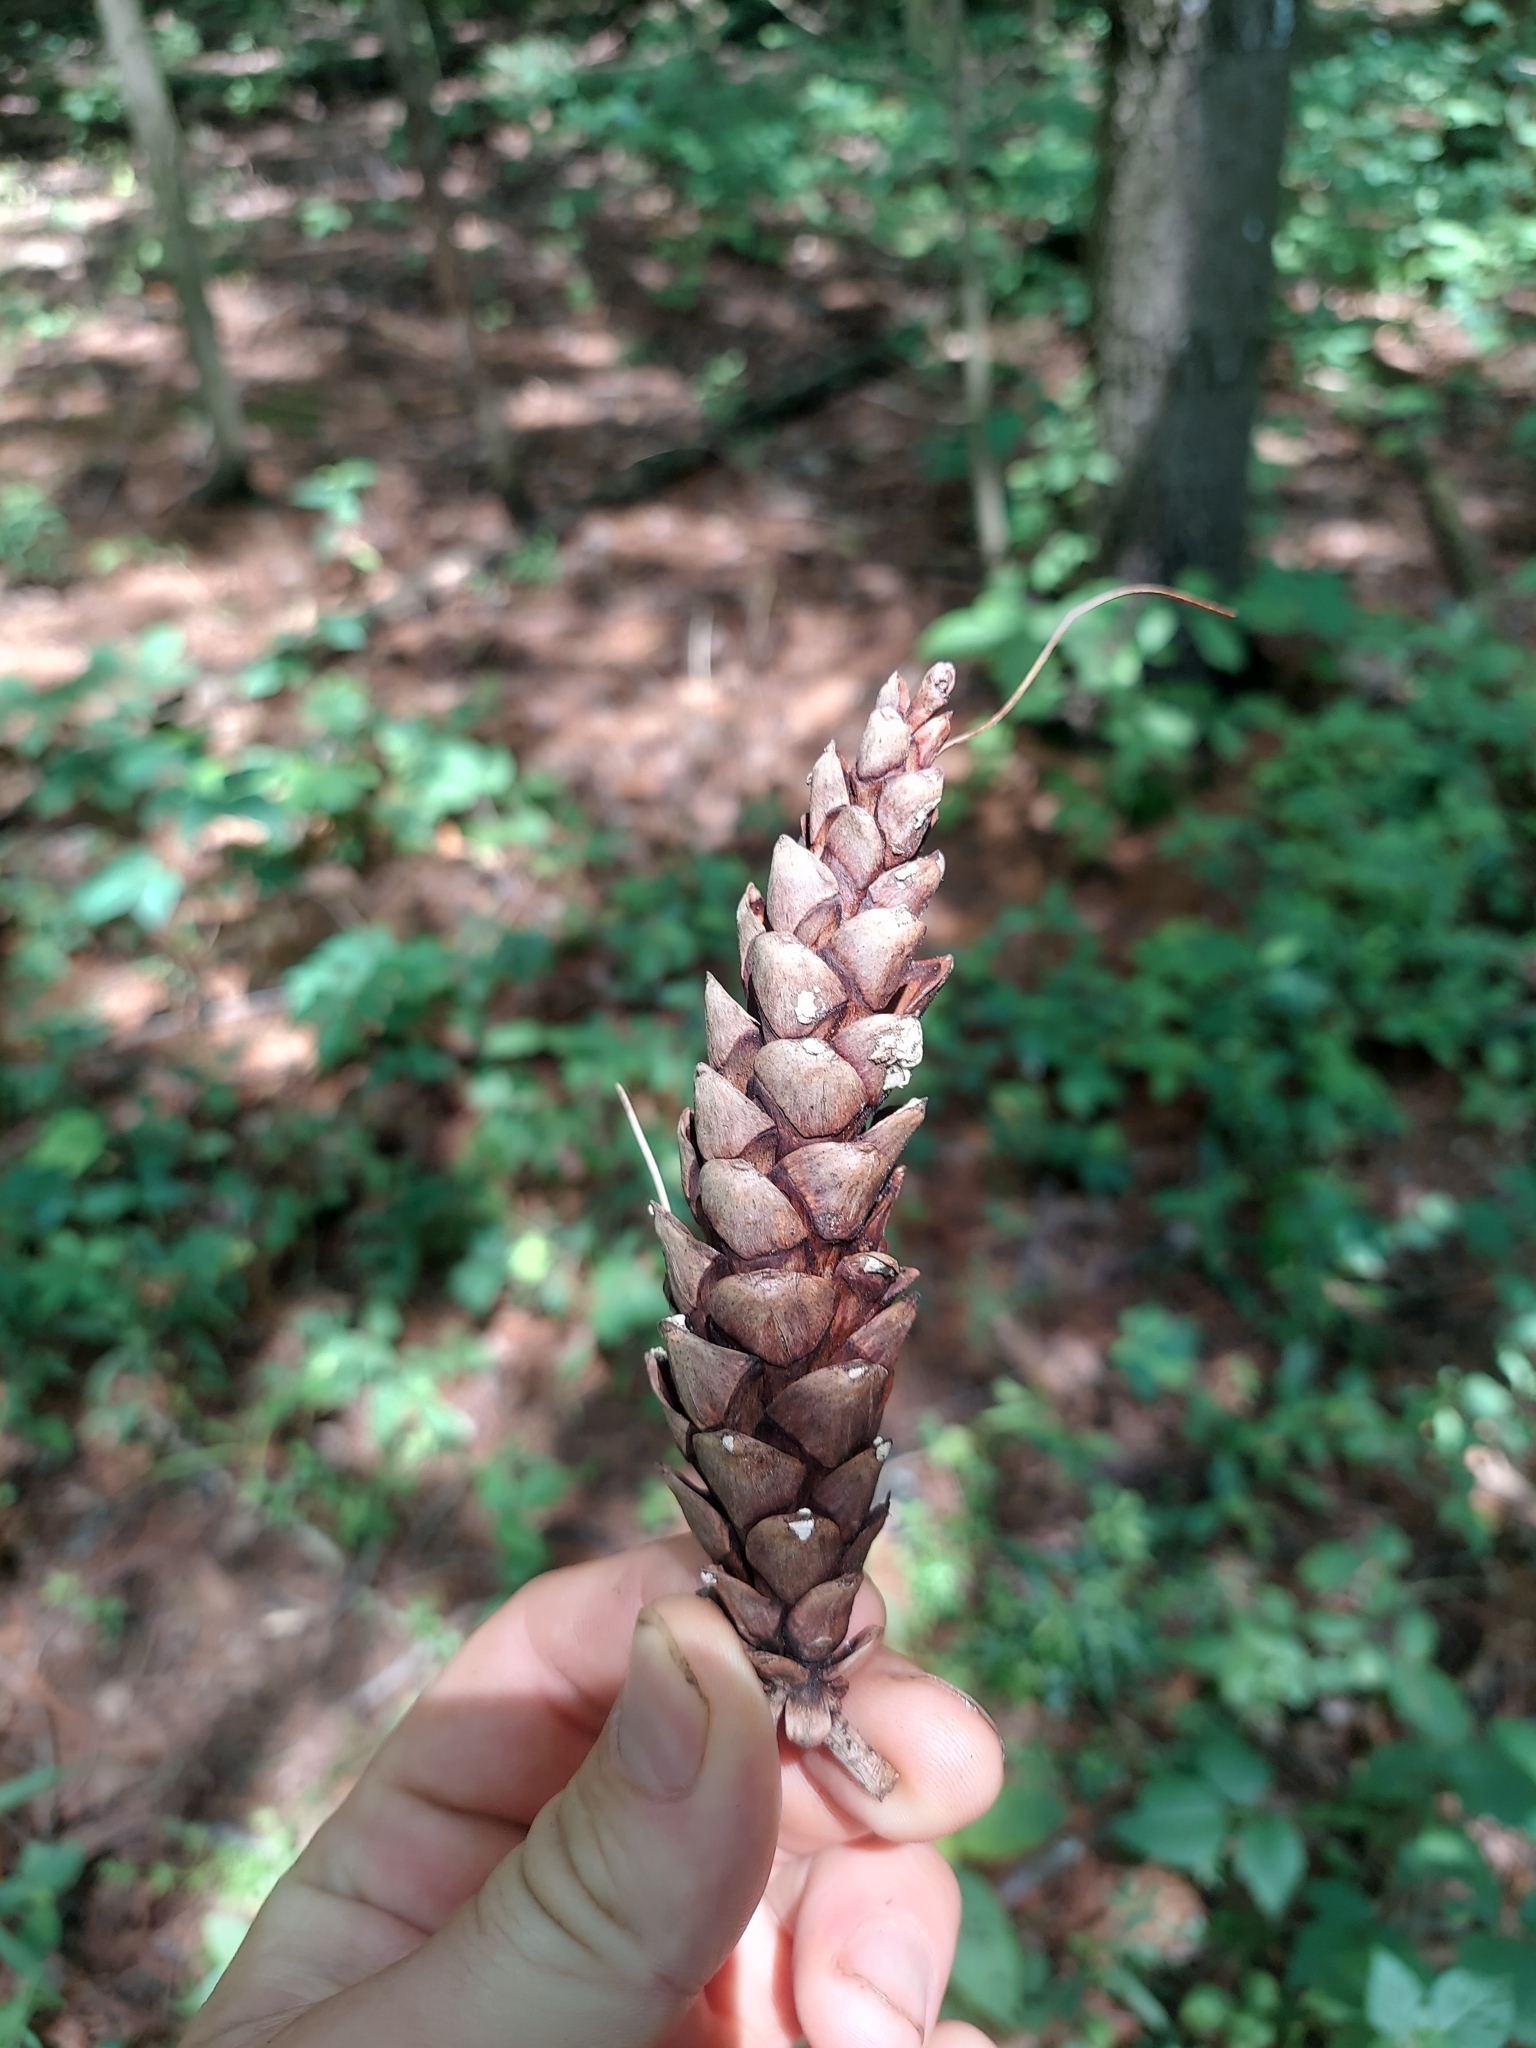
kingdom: Plantae
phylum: Tracheophyta
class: Pinopsida
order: Pinales
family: Pinaceae
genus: Pinus
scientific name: Pinus strobus
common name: Weymouth pine
